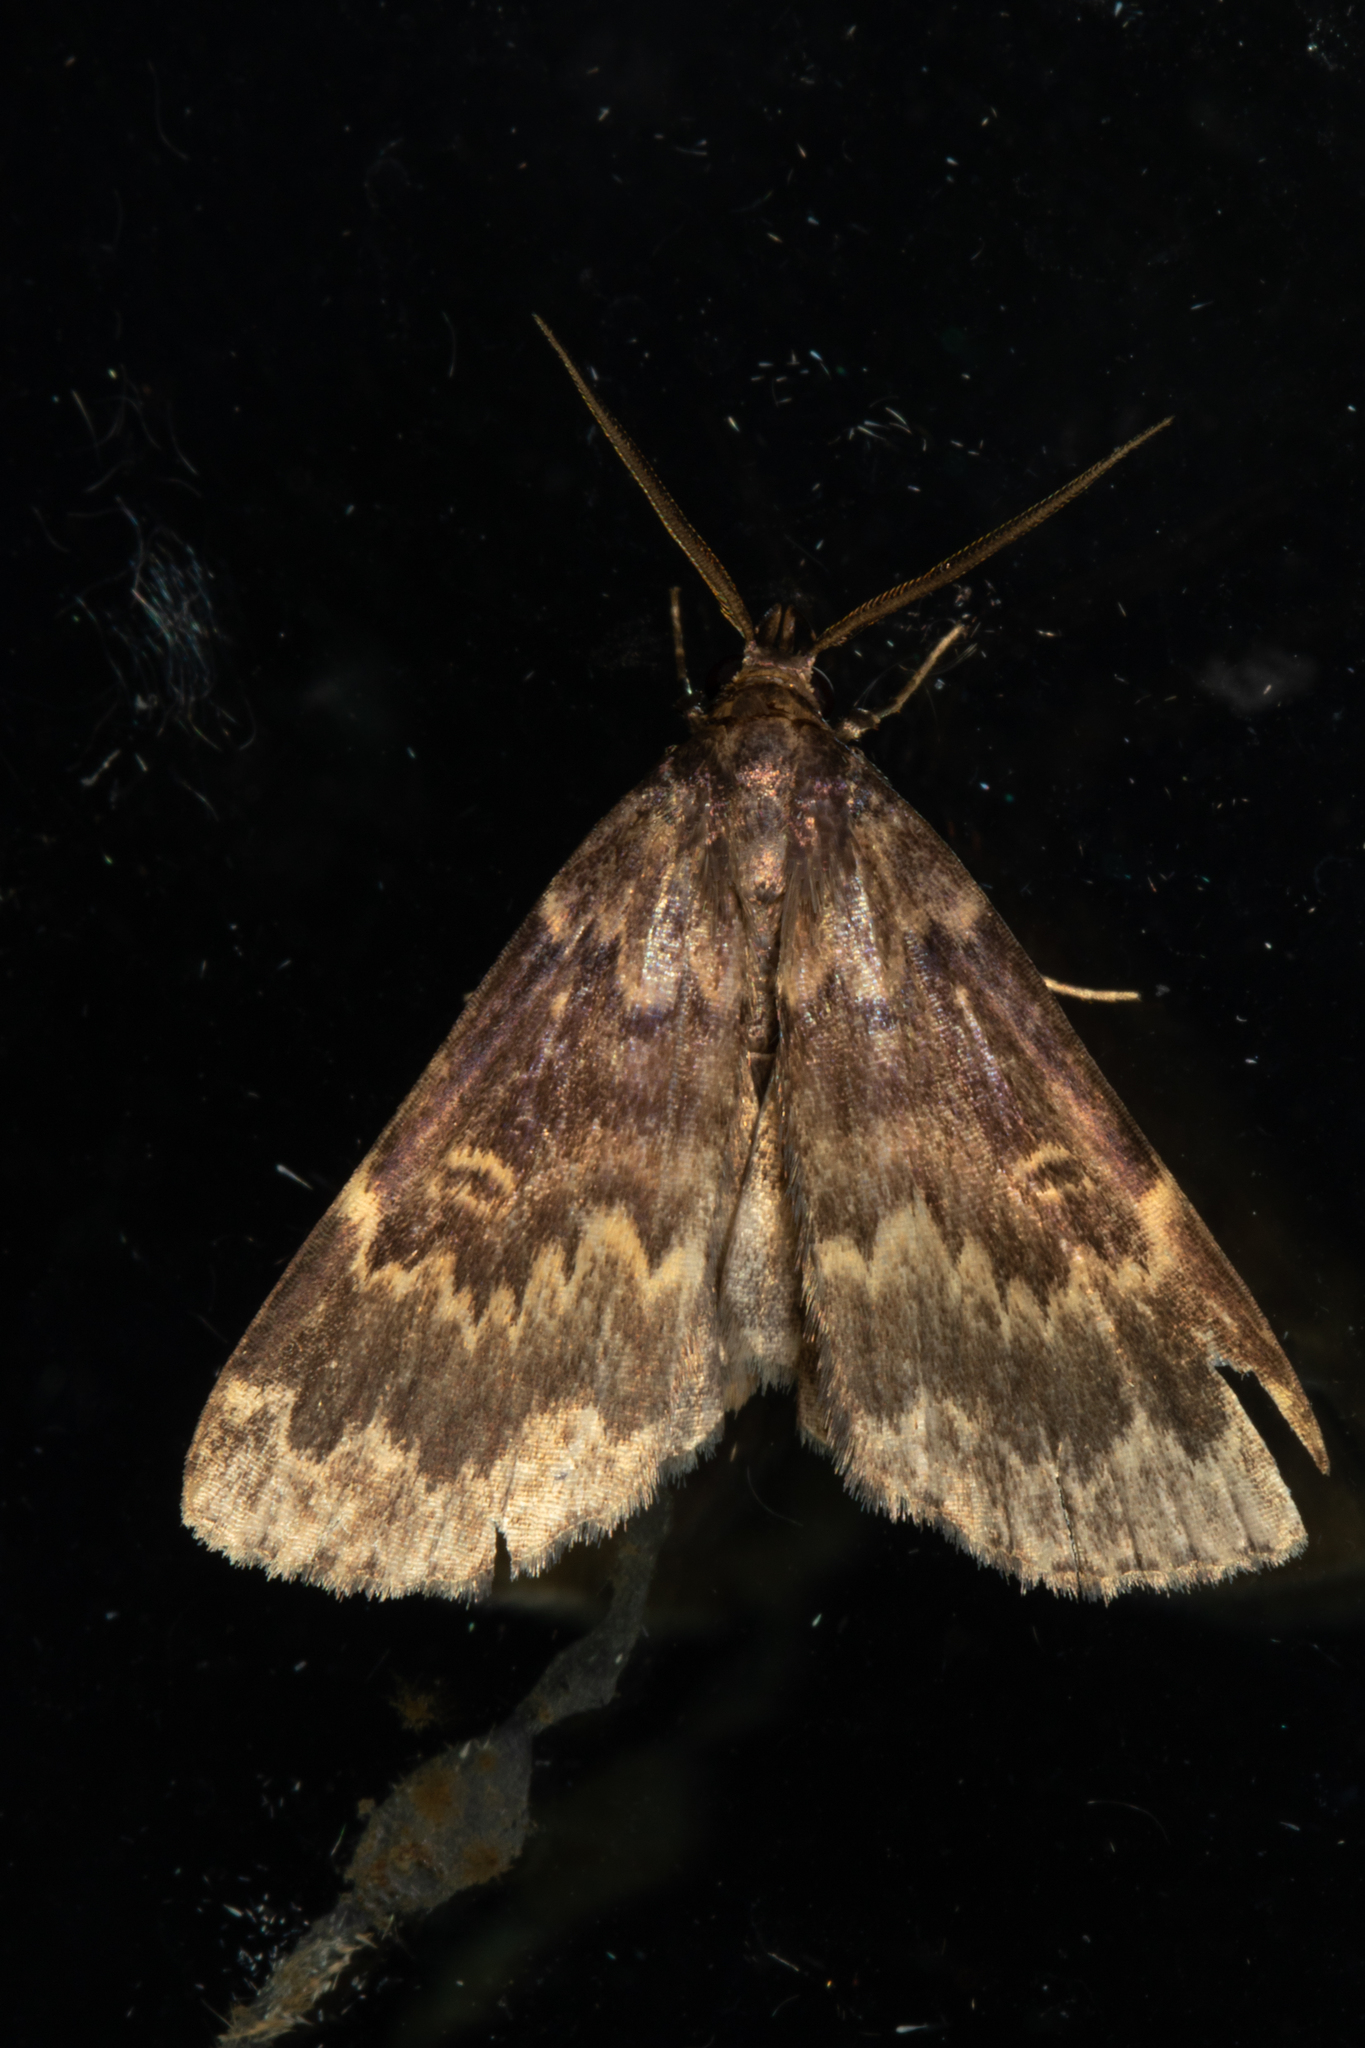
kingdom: Animalia
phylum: Arthropoda
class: Insecta
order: Lepidoptera
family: Erebidae
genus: Idia
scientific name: Idia lubricalis
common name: Twin-striped tabby
